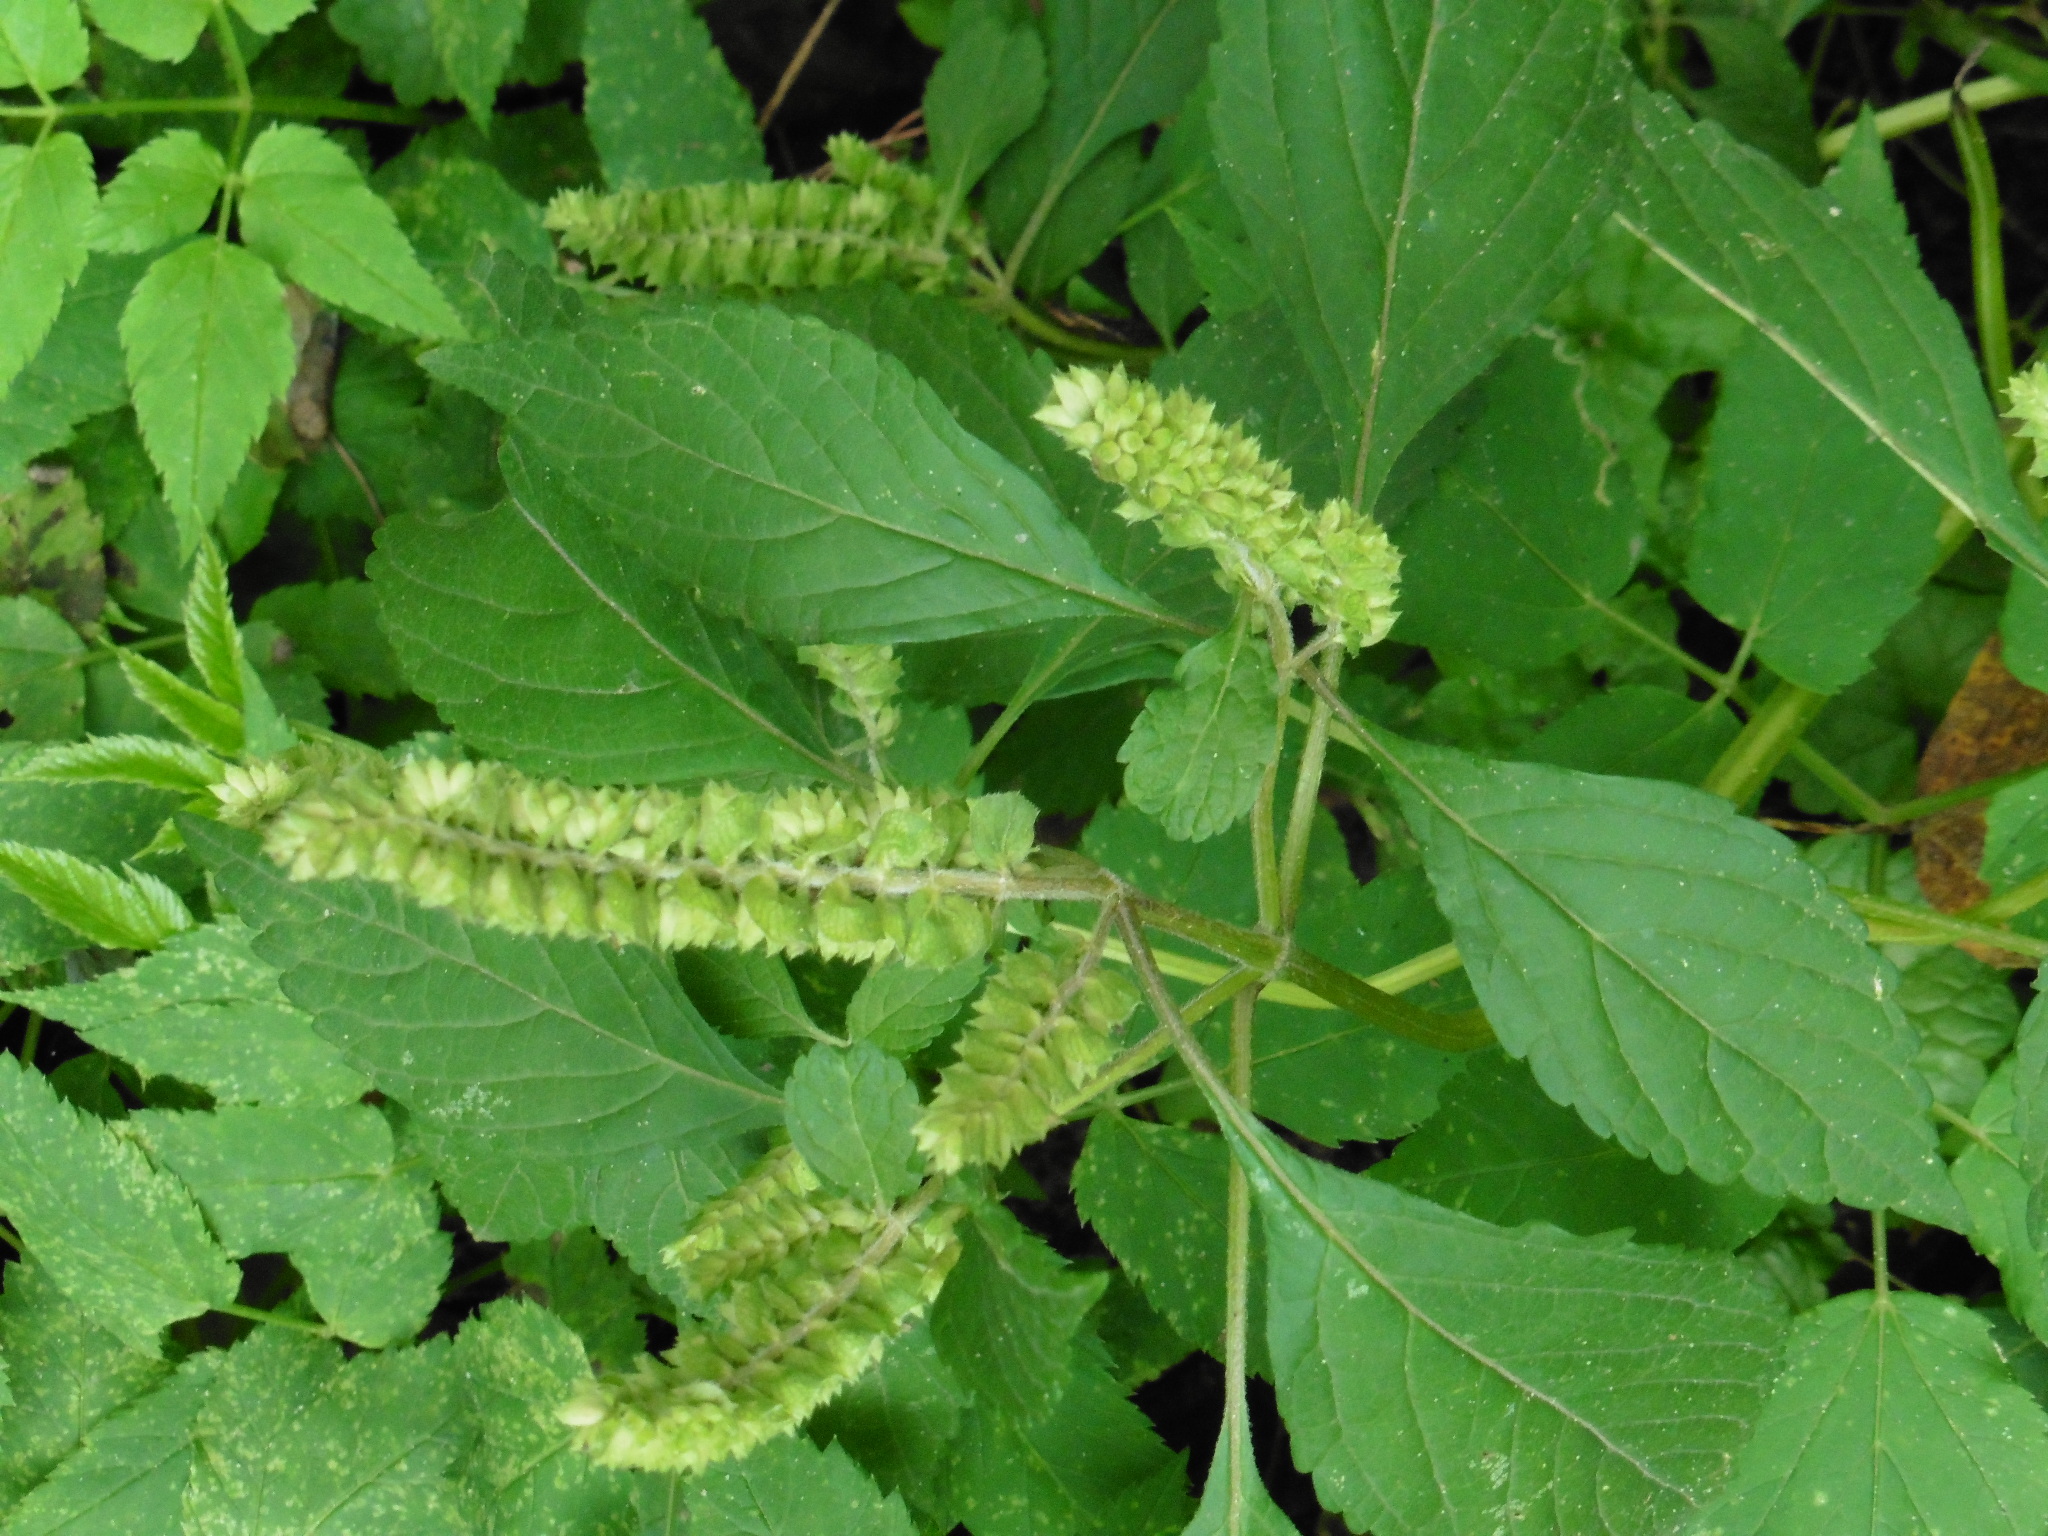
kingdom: Plantae
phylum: Tracheophyta
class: Magnoliopsida
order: Lamiales
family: Lamiaceae
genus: Elsholtzia
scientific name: Elsholtzia ciliata
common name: Ciliate elsholtzia
